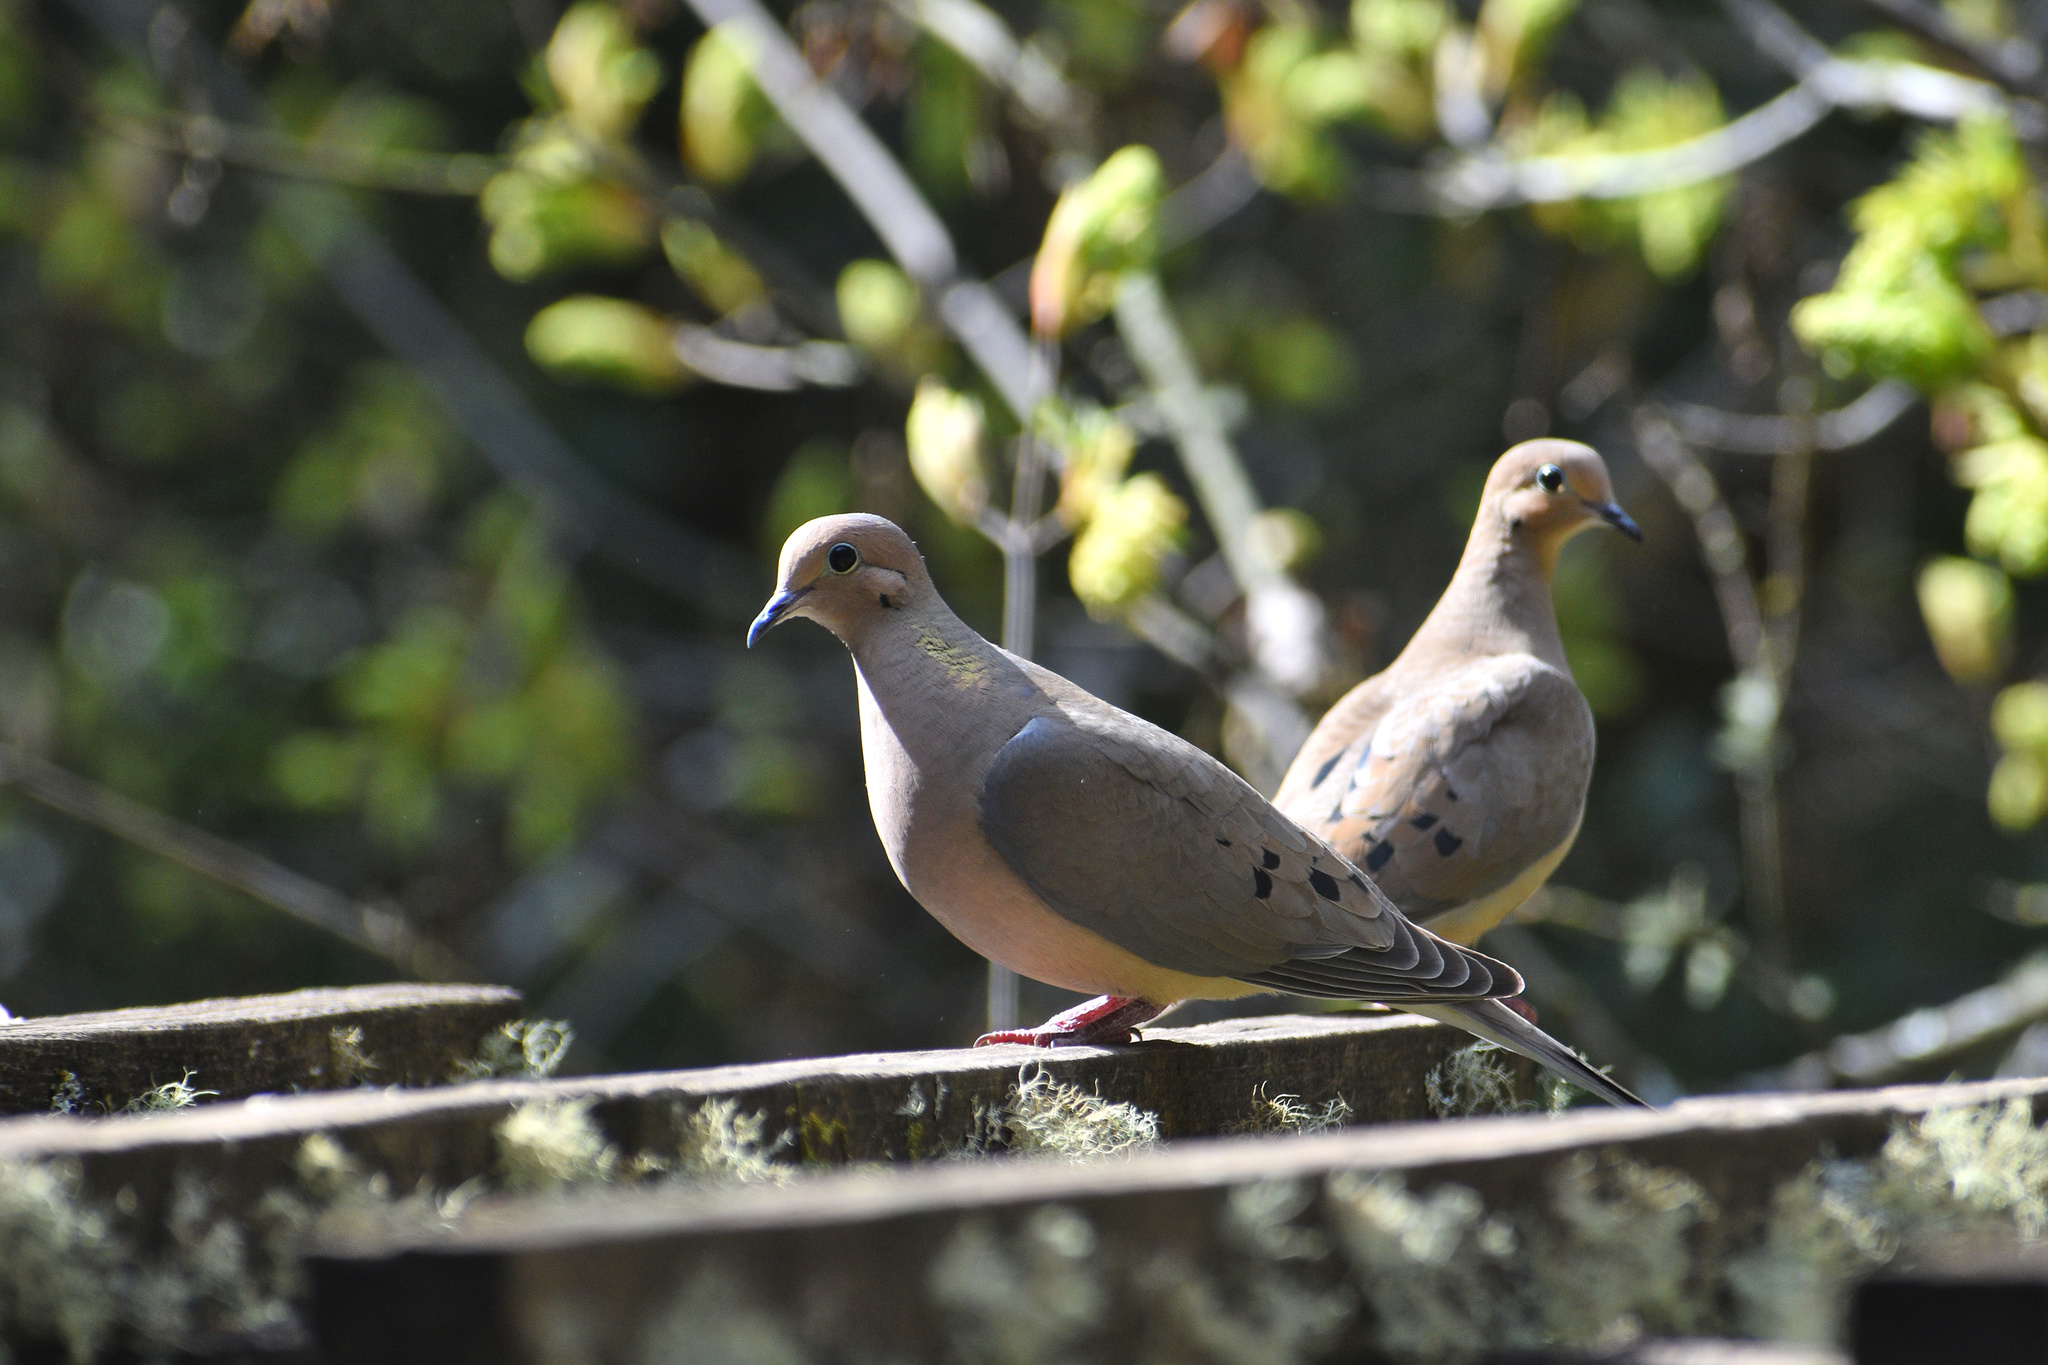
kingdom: Animalia
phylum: Chordata
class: Aves
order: Columbiformes
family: Columbidae
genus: Zenaida
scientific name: Zenaida macroura
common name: Mourning dove
